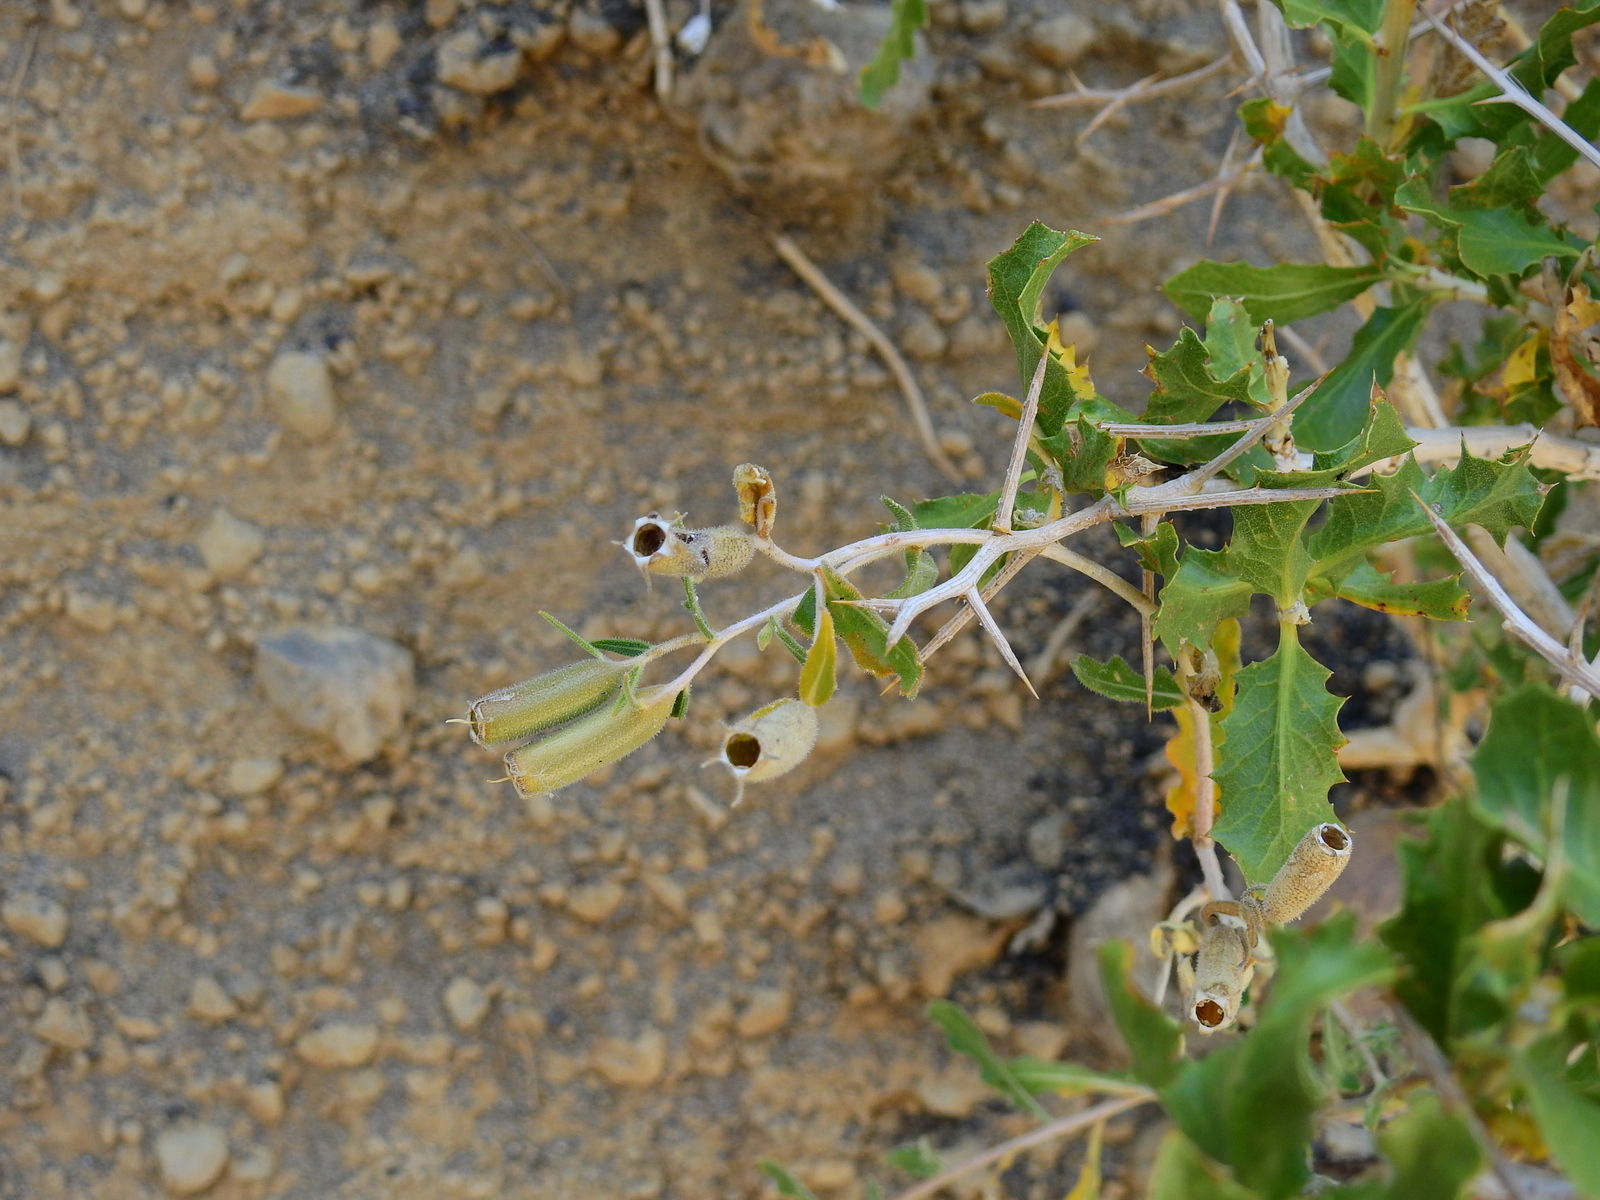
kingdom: Plantae
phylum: Tracheophyta
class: Magnoliopsida
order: Cornales
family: Loasaceae
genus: Mentzelia
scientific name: Mentzelia albescens
